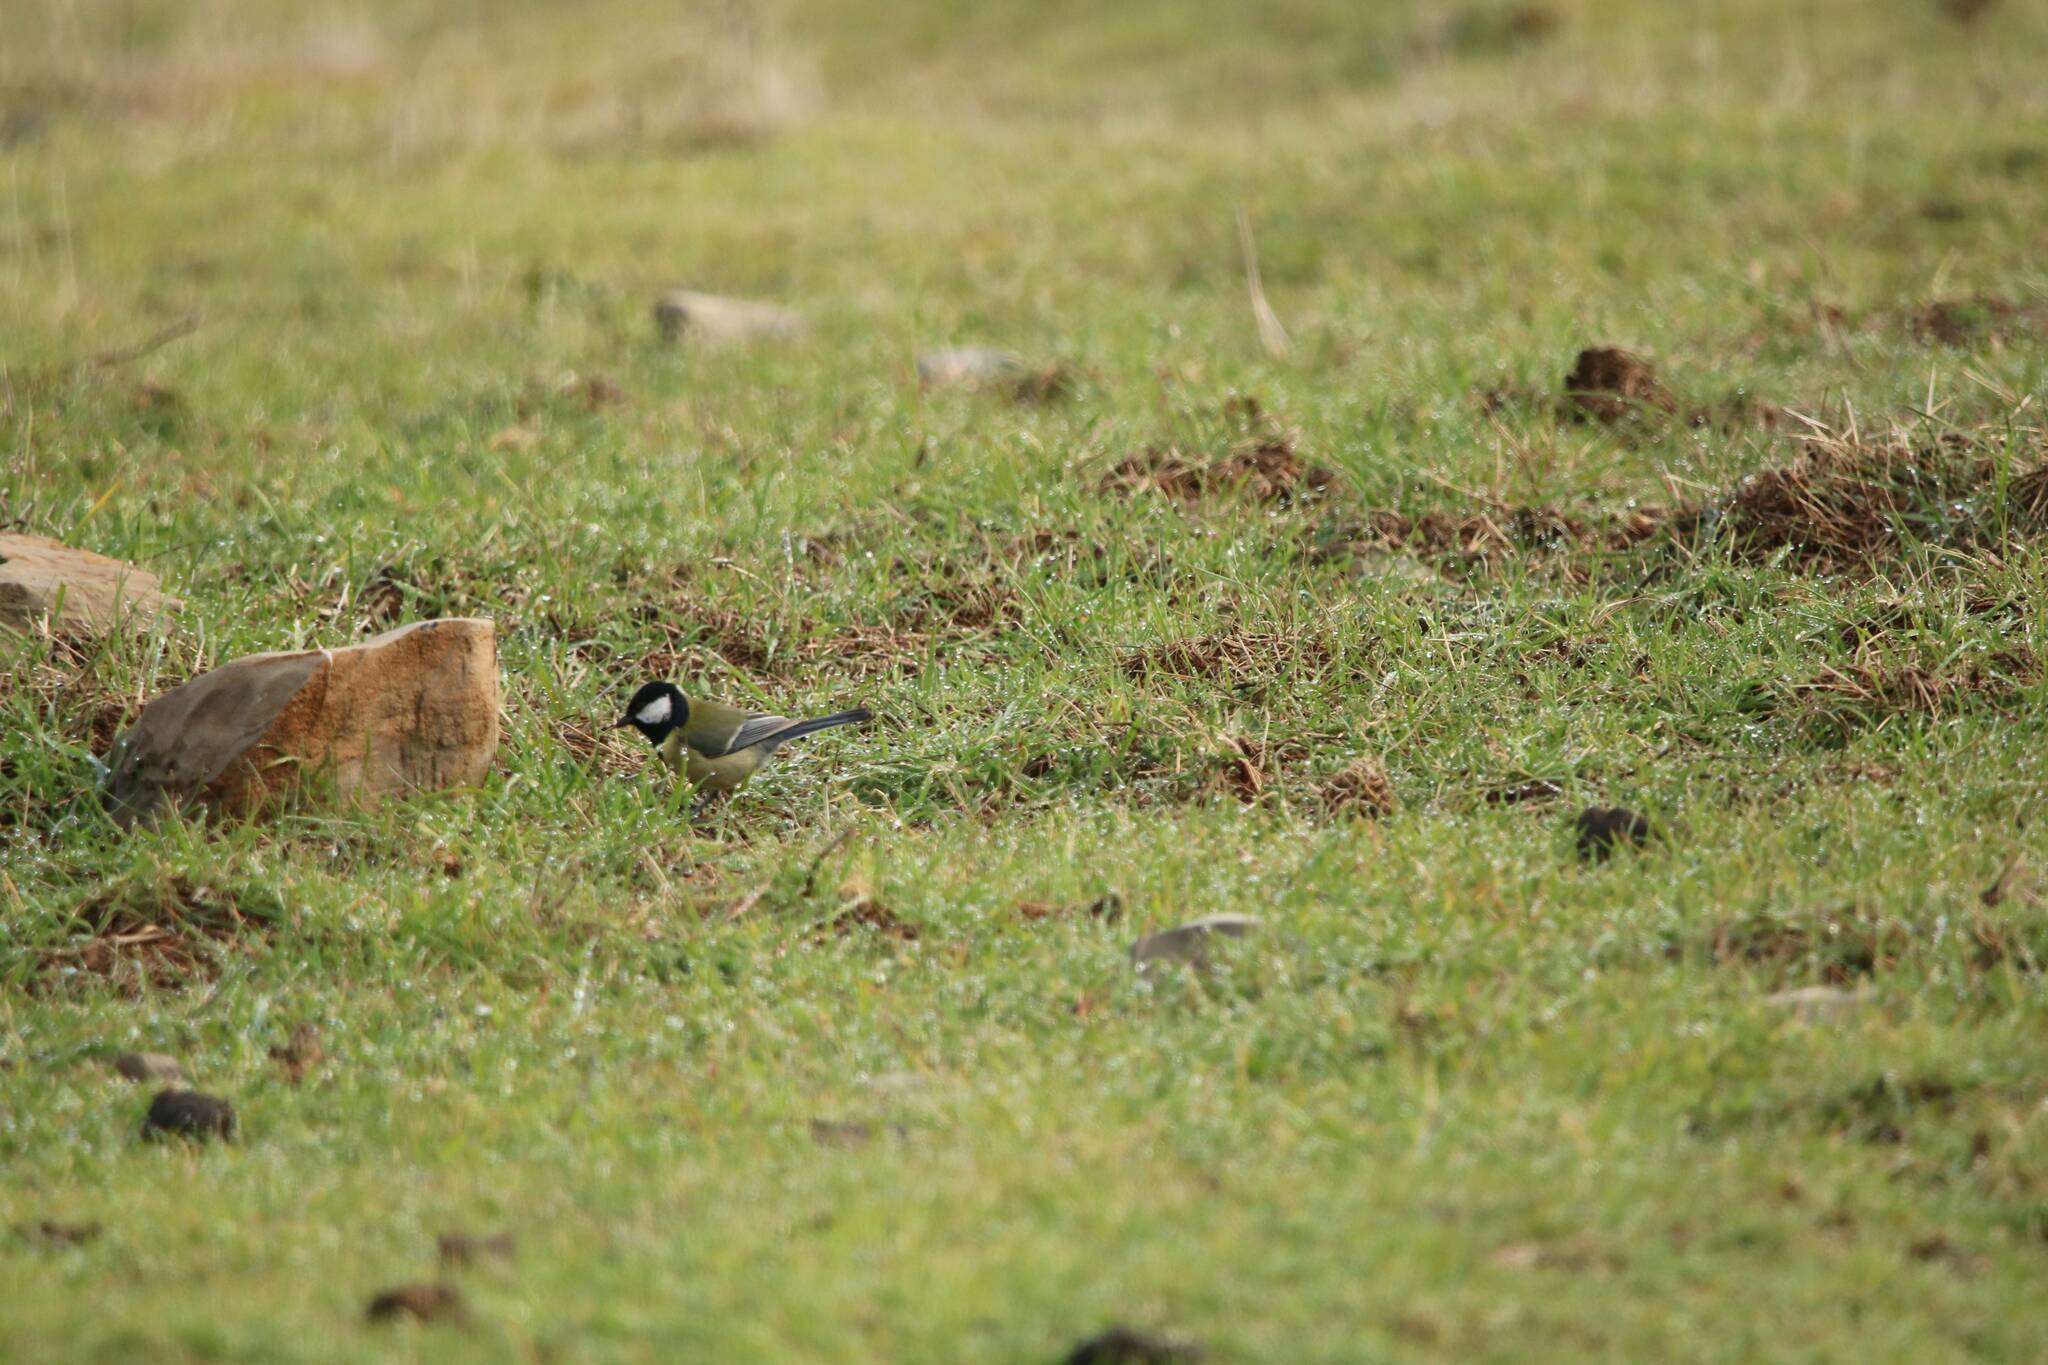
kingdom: Animalia
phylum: Chordata
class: Aves
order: Passeriformes
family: Paridae
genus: Parus
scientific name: Parus major
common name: Great tit
